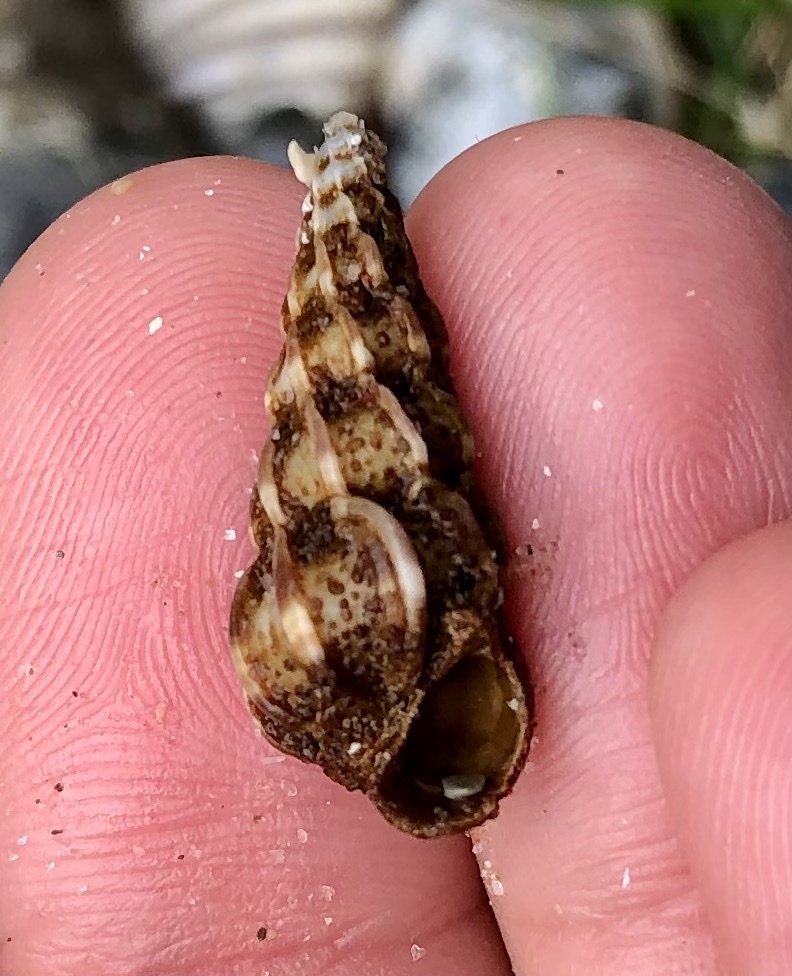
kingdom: Animalia
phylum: Mollusca
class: Gastropoda
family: Epitoniidae
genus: Epitonium
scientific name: Epitonium clathrus
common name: Common wentletrap
